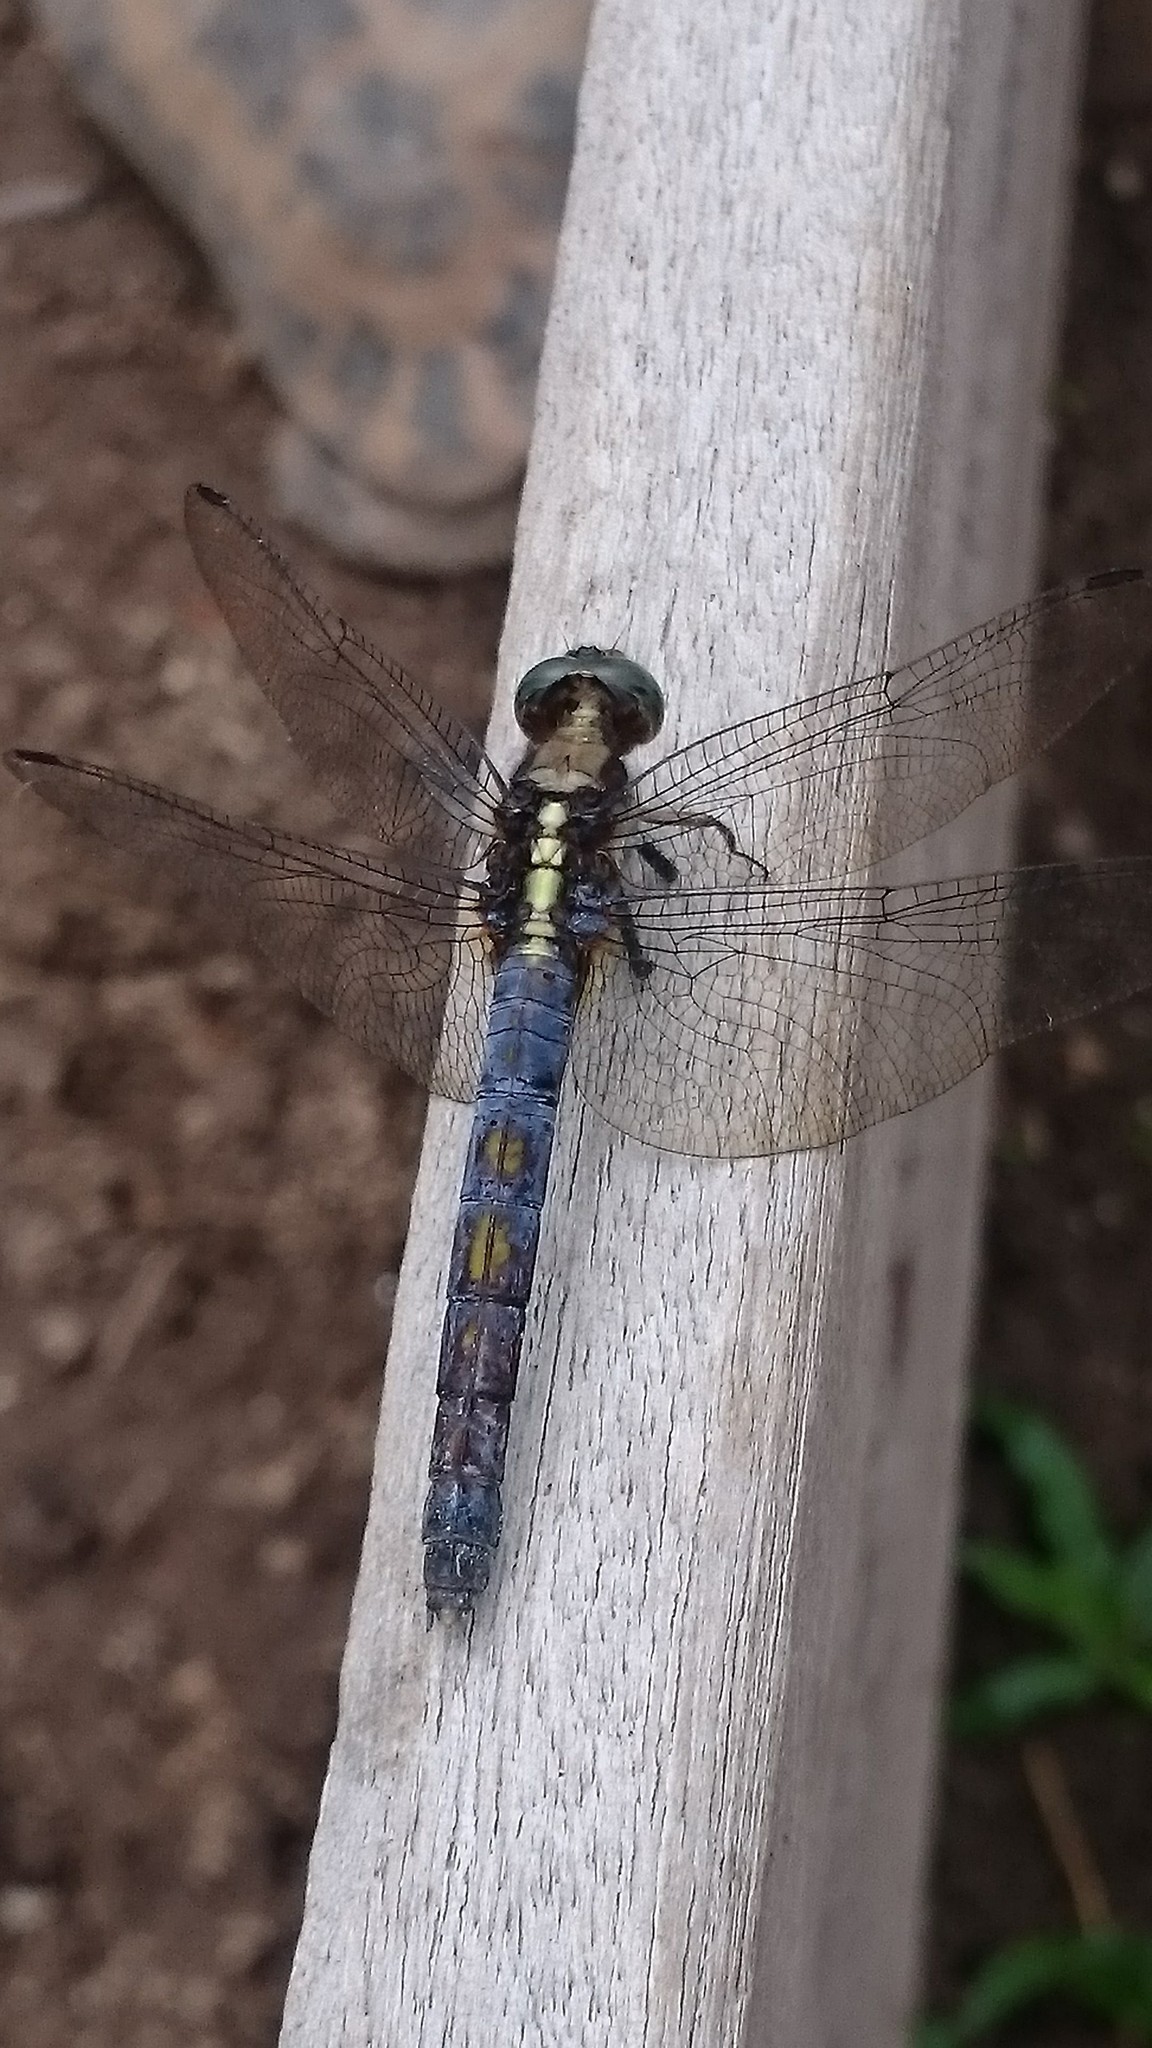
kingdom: Animalia
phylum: Arthropoda
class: Insecta
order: Odonata
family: Libellulidae
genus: Orthetrum
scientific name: Orthetrum glaucum
